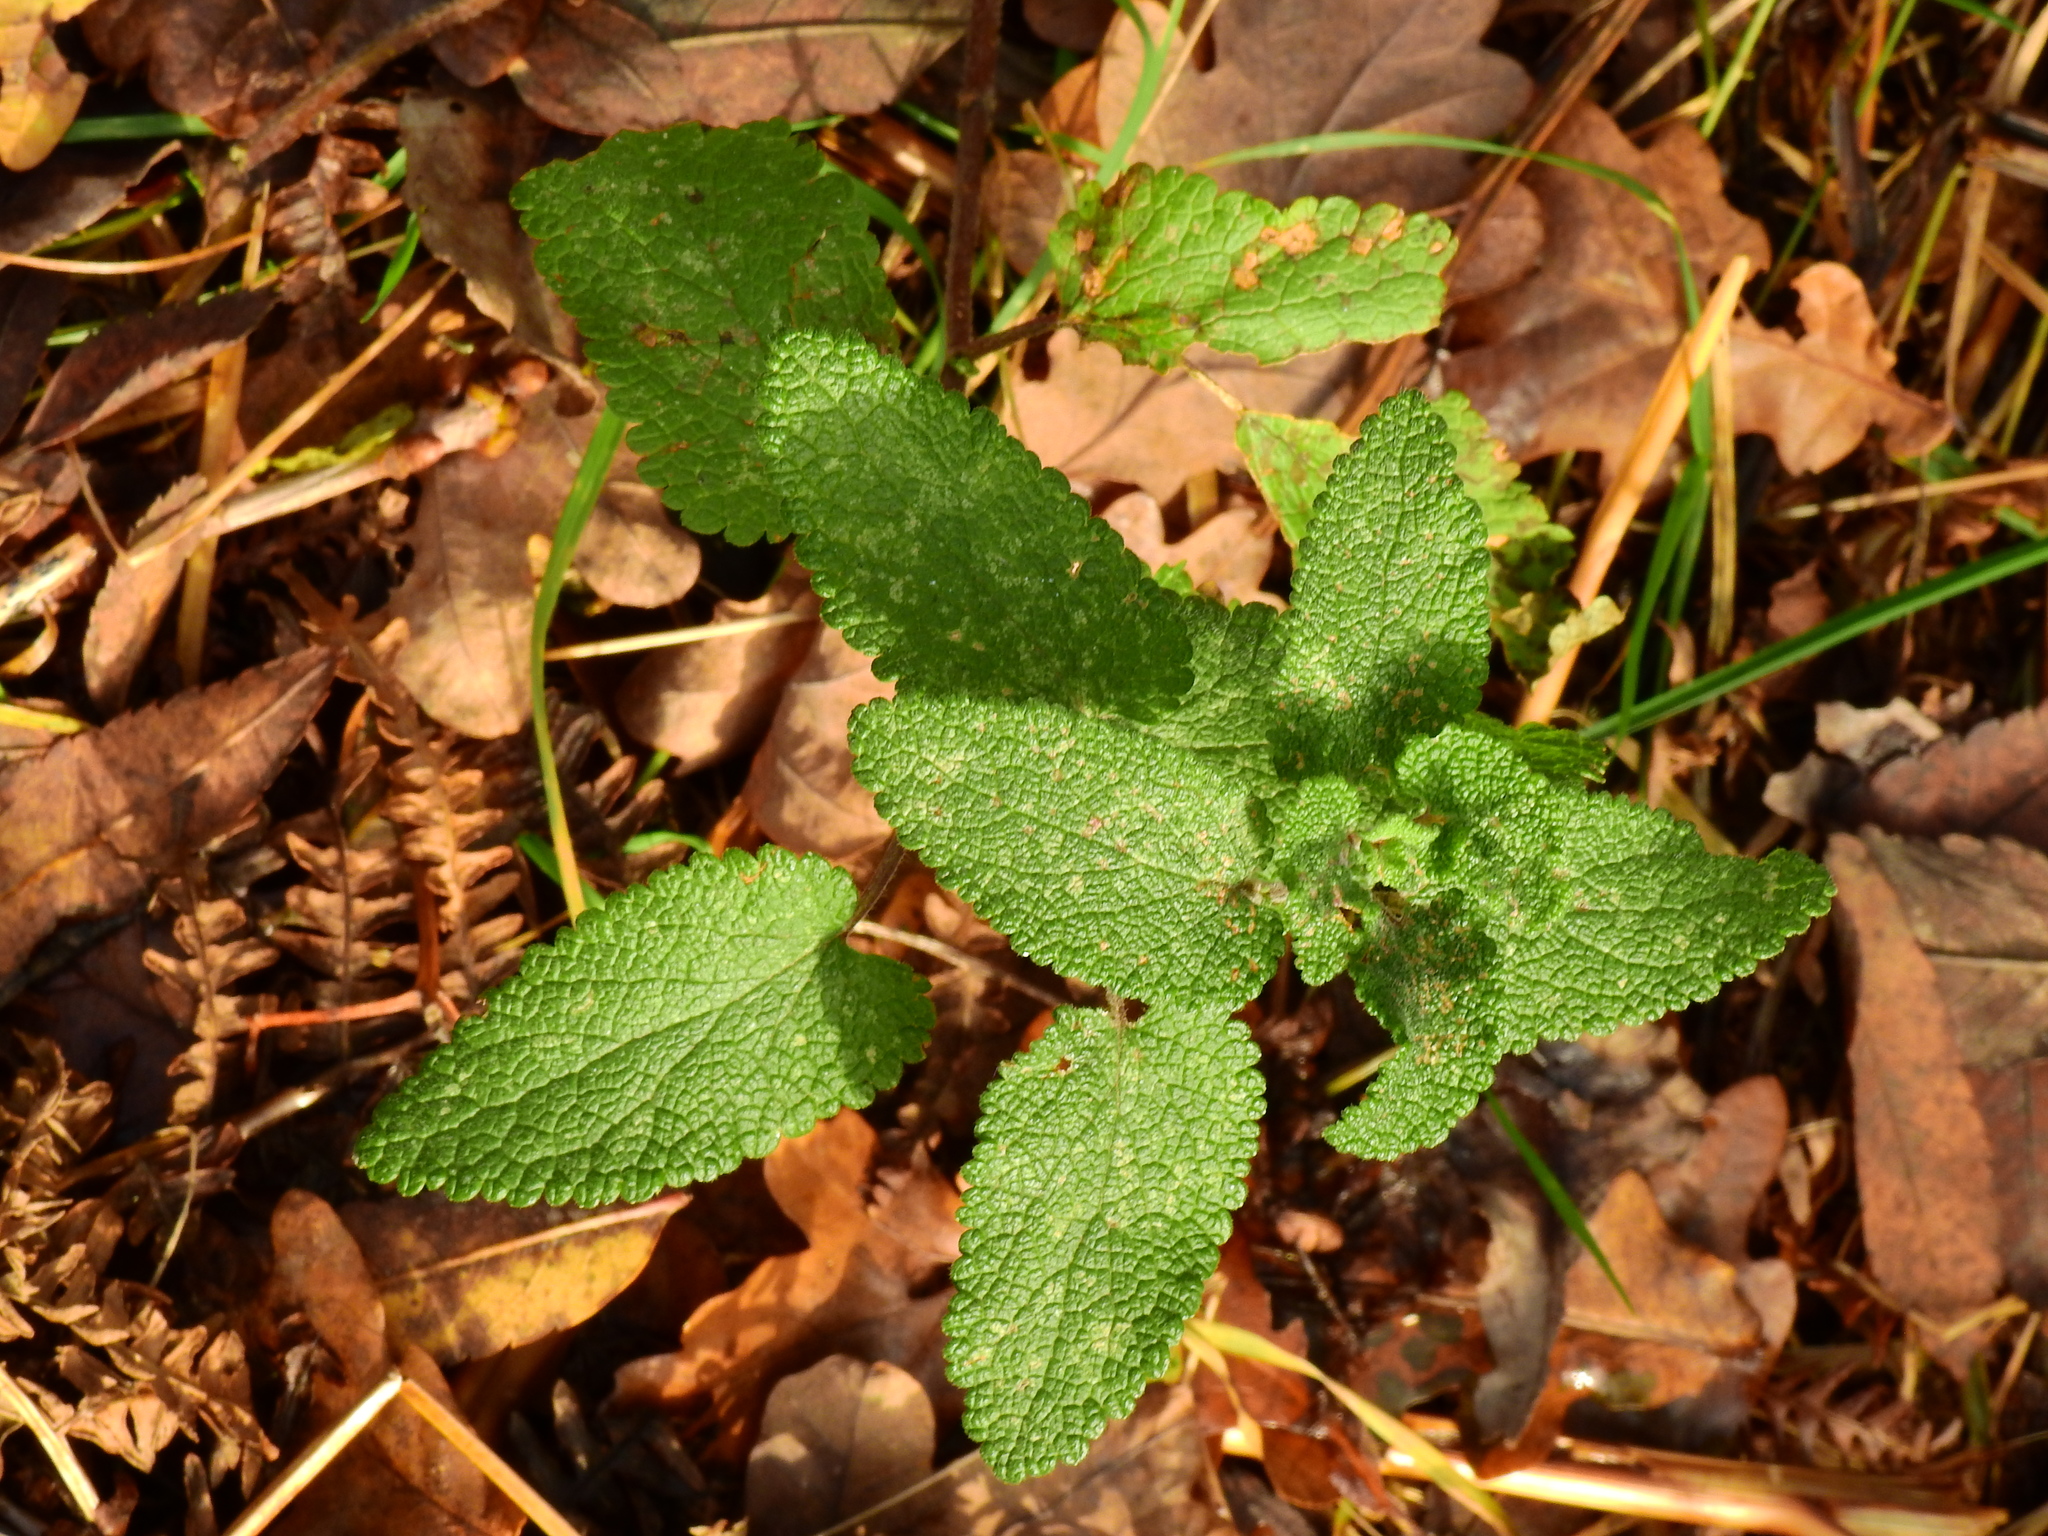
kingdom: Plantae
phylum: Tracheophyta
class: Magnoliopsida
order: Lamiales
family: Lamiaceae
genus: Teucrium
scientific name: Teucrium scorodonia
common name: Woodland germander
